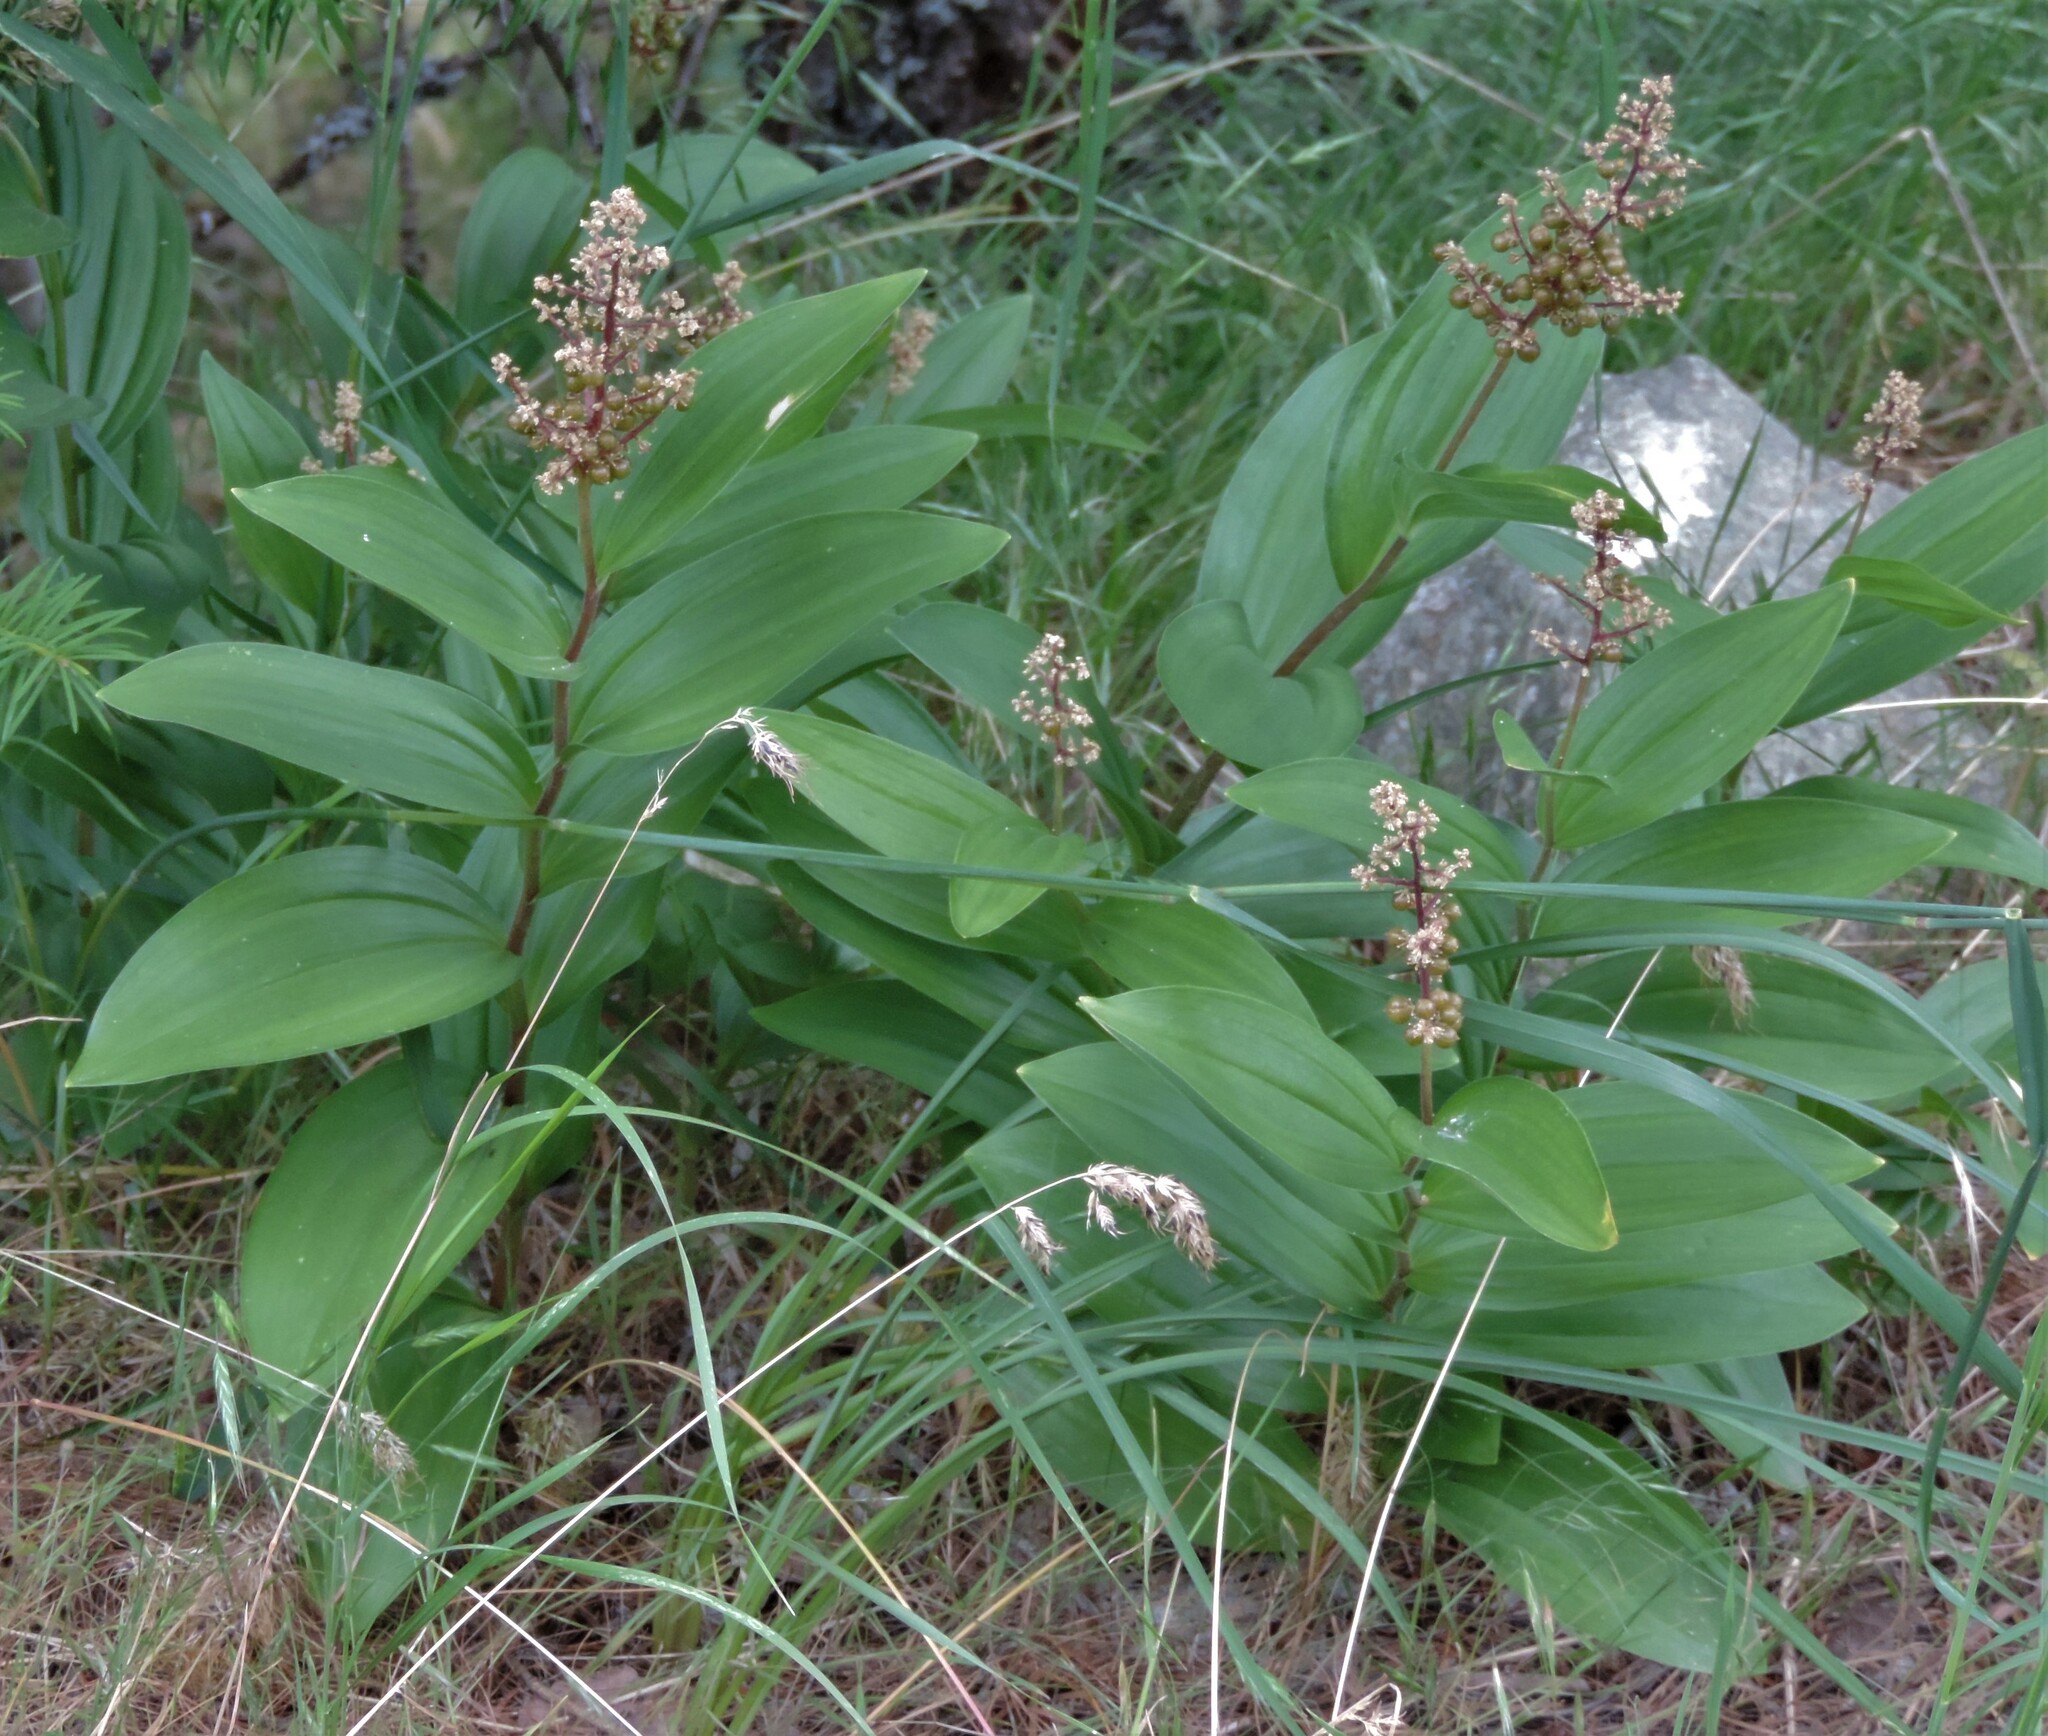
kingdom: Plantae
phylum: Tracheophyta
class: Liliopsida
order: Asparagales
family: Asparagaceae
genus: Maianthemum
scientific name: Maianthemum racemosum
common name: False spikenard
